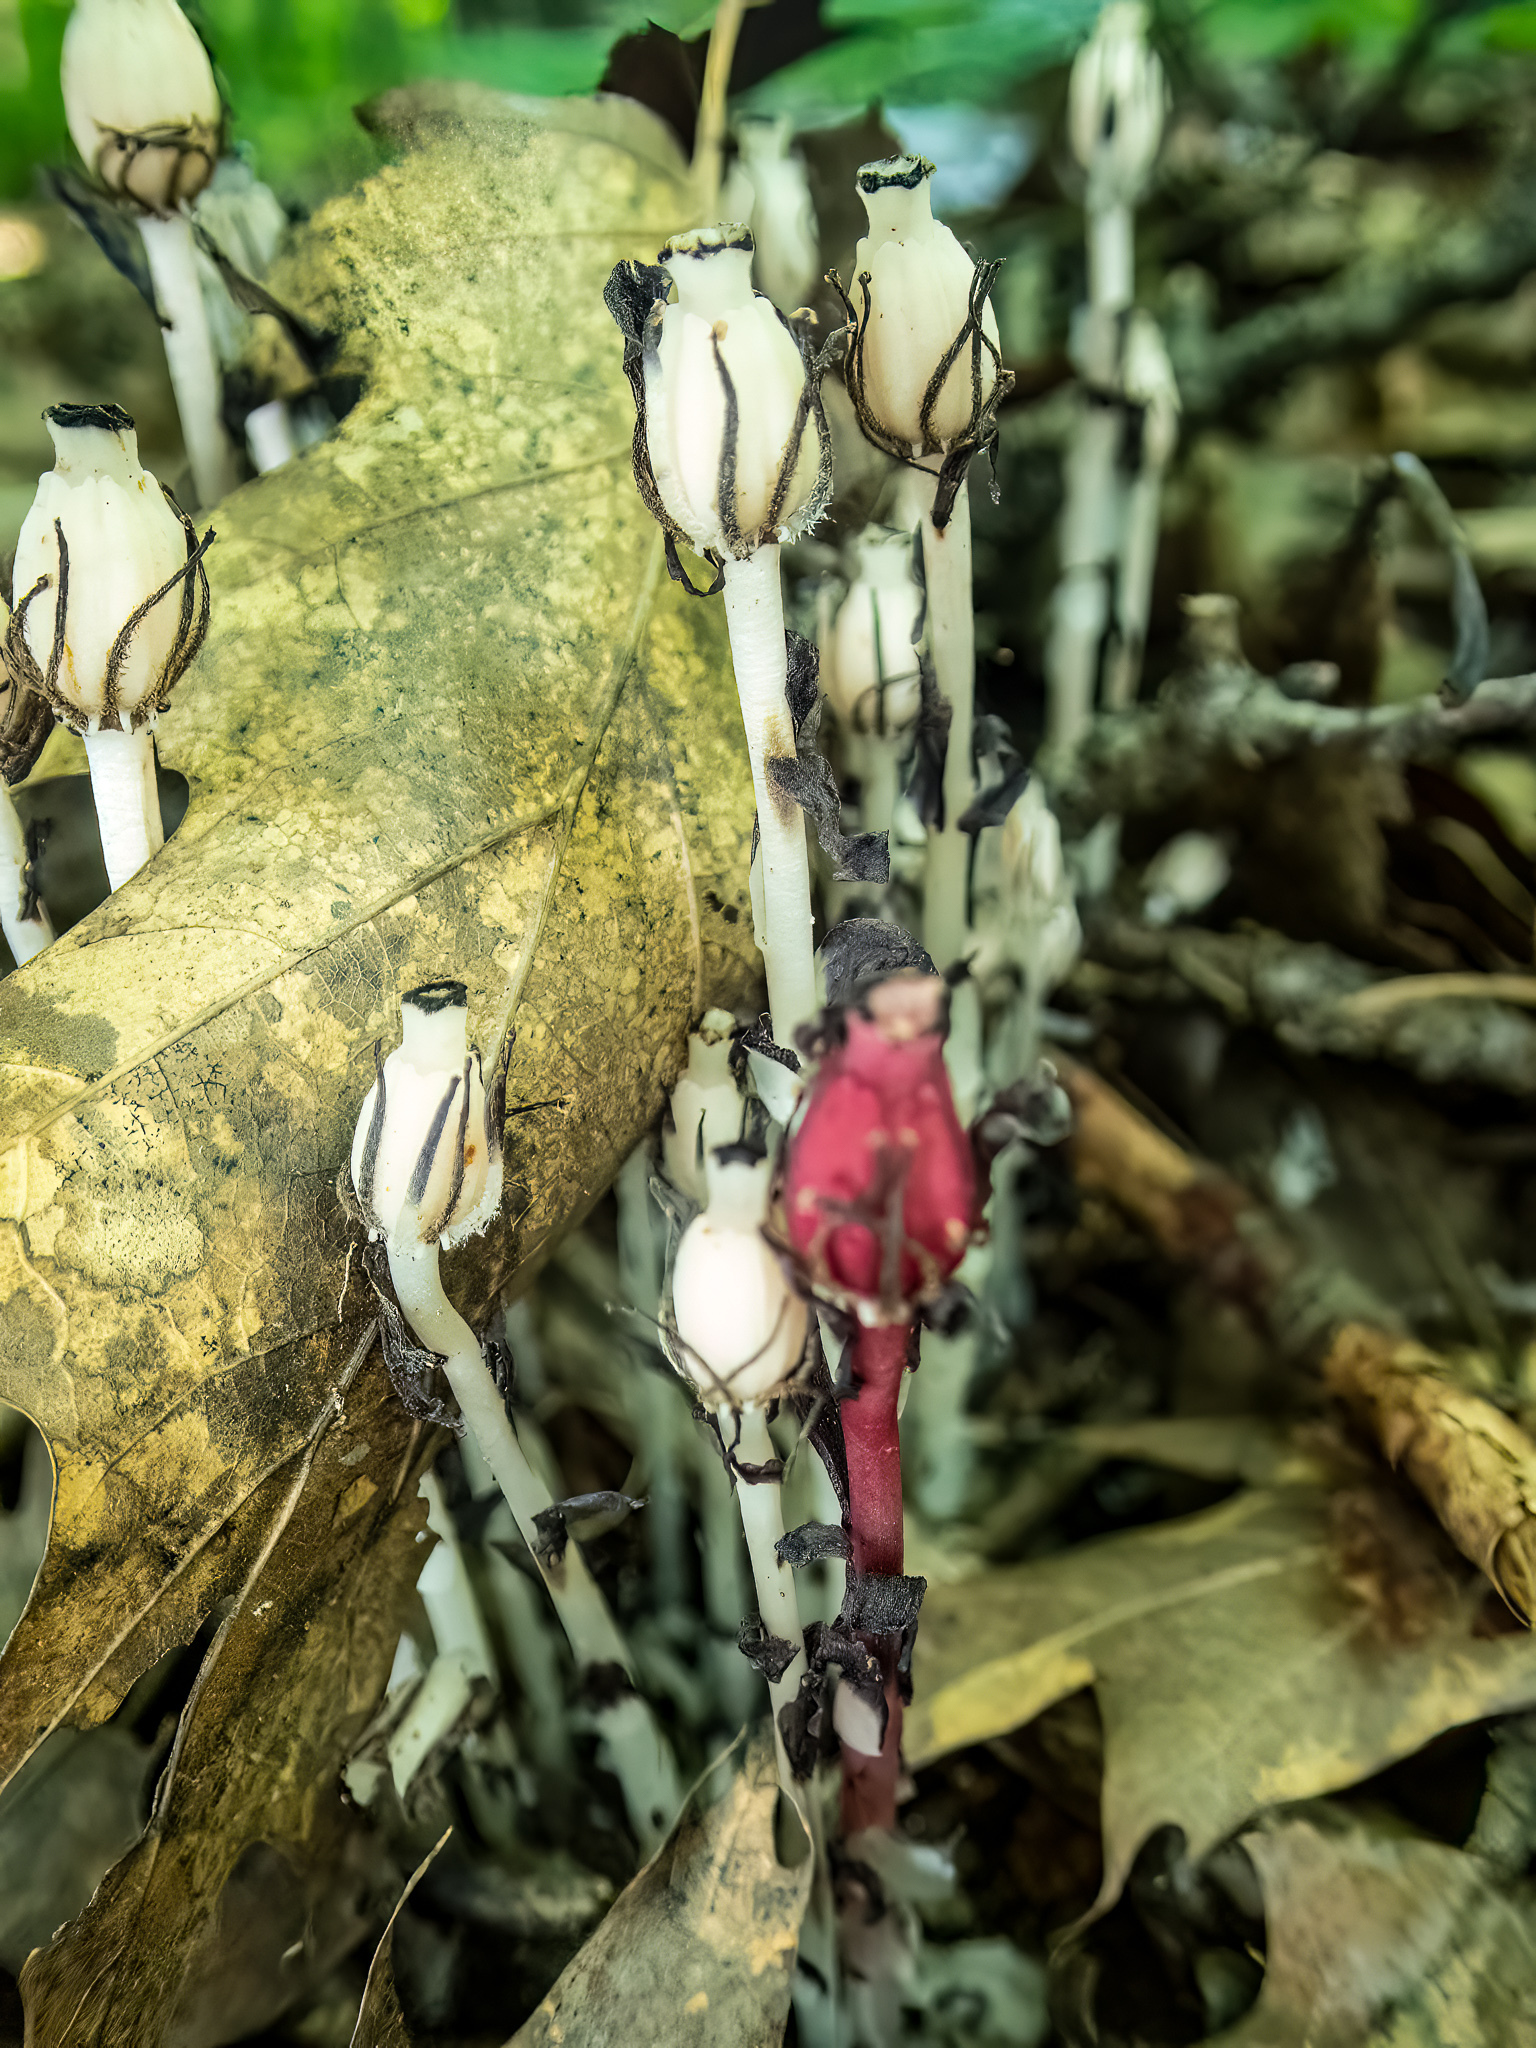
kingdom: Plantae
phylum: Tracheophyta
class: Magnoliopsida
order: Ericales
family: Ericaceae
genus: Monotropa
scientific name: Monotropa uniflora
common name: Convulsion root
